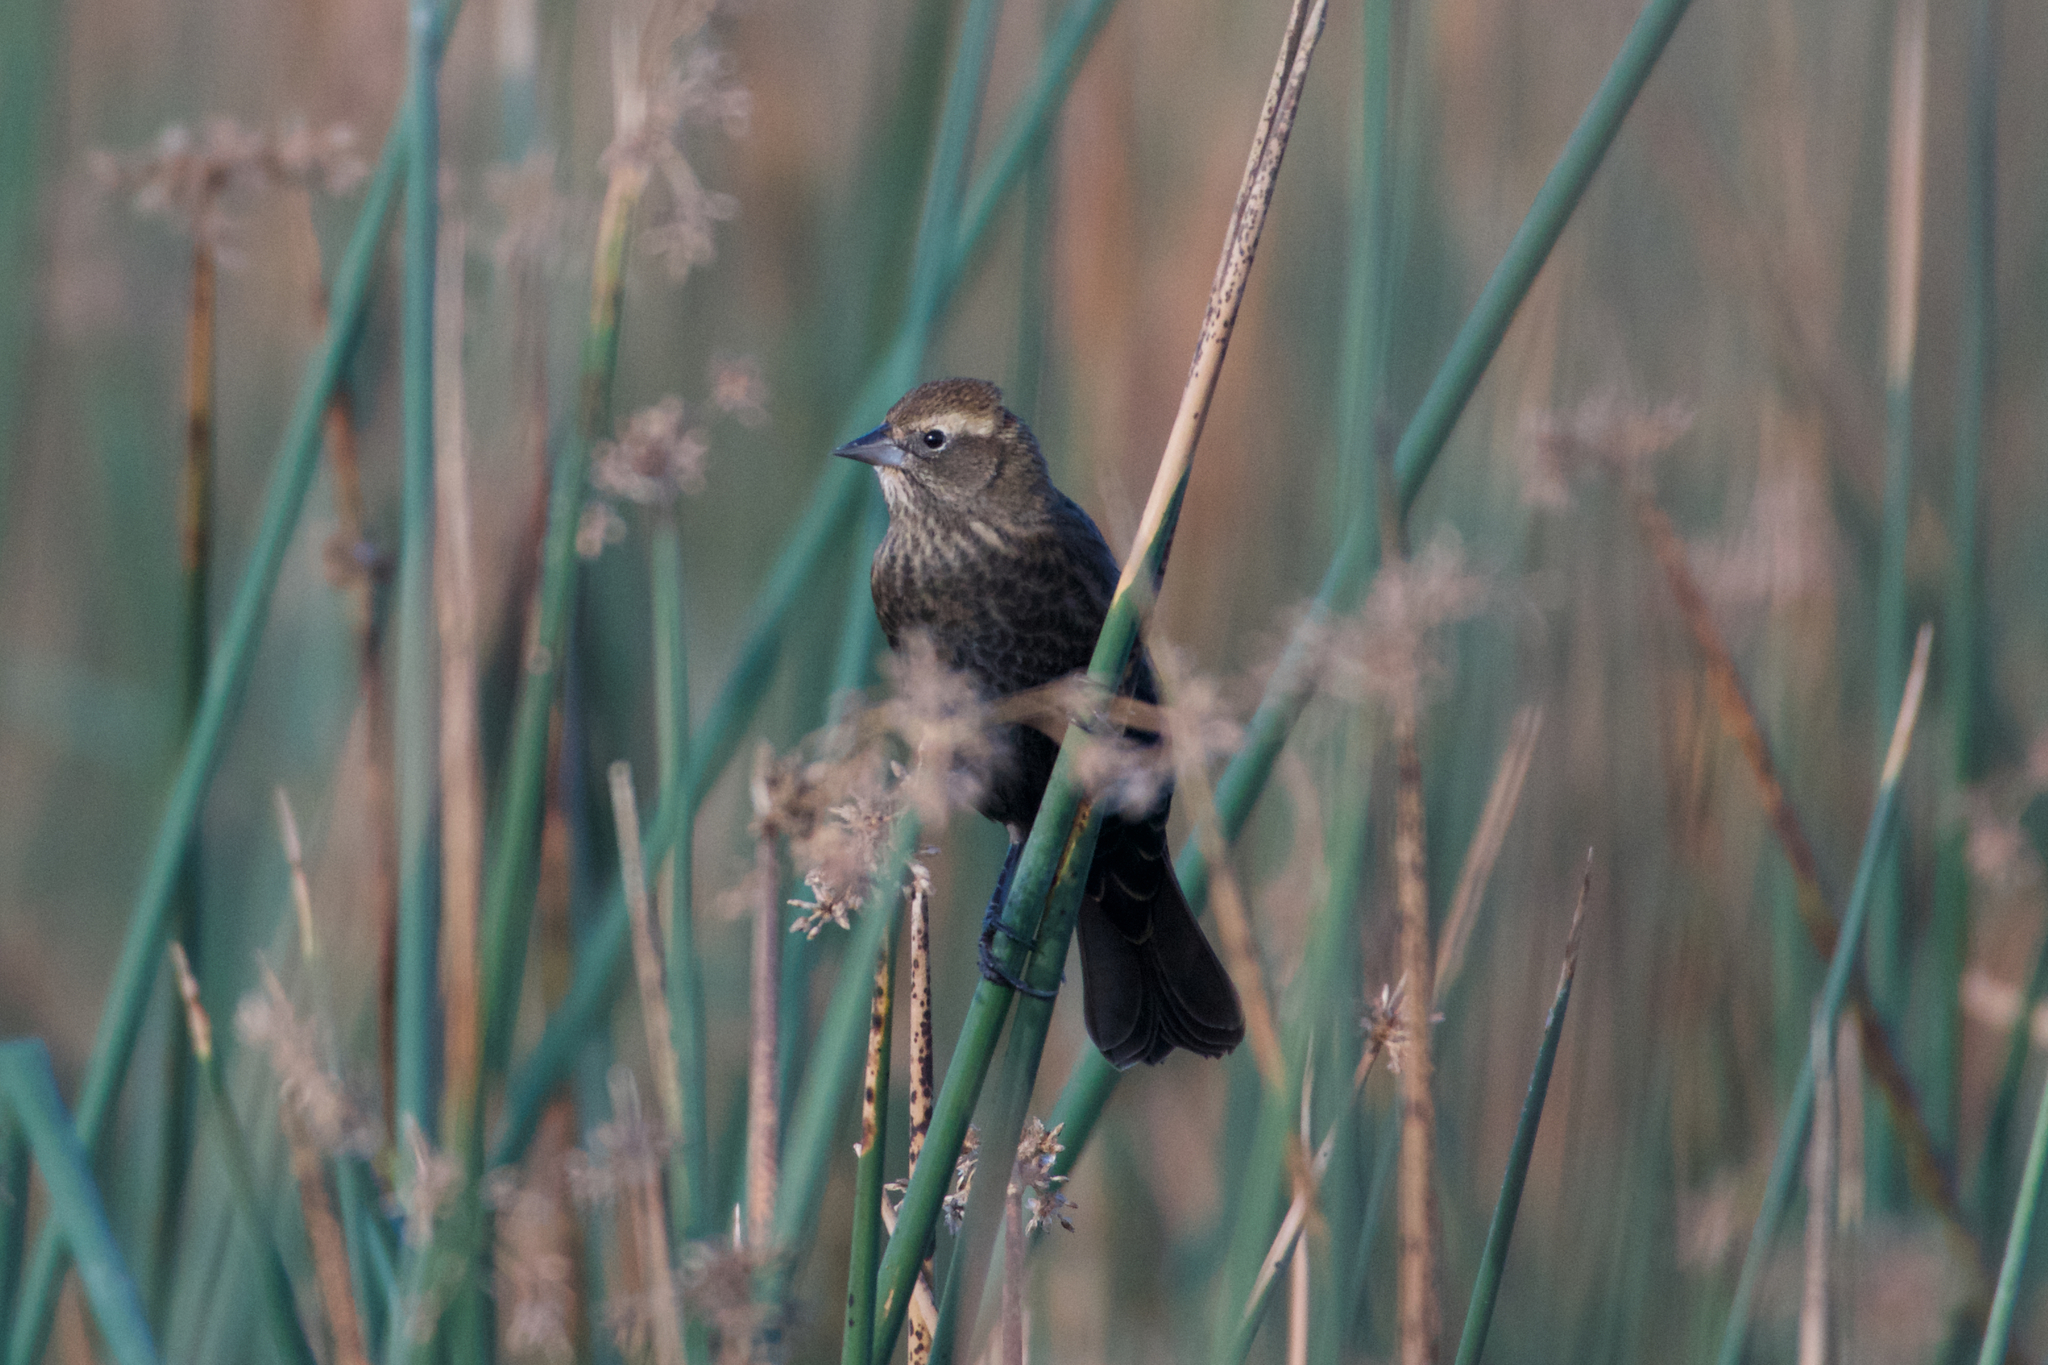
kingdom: Animalia
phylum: Chordata
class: Aves
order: Passeriformes
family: Icteridae
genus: Agelaius
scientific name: Agelaius phoeniceus
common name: Red-winged blackbird
